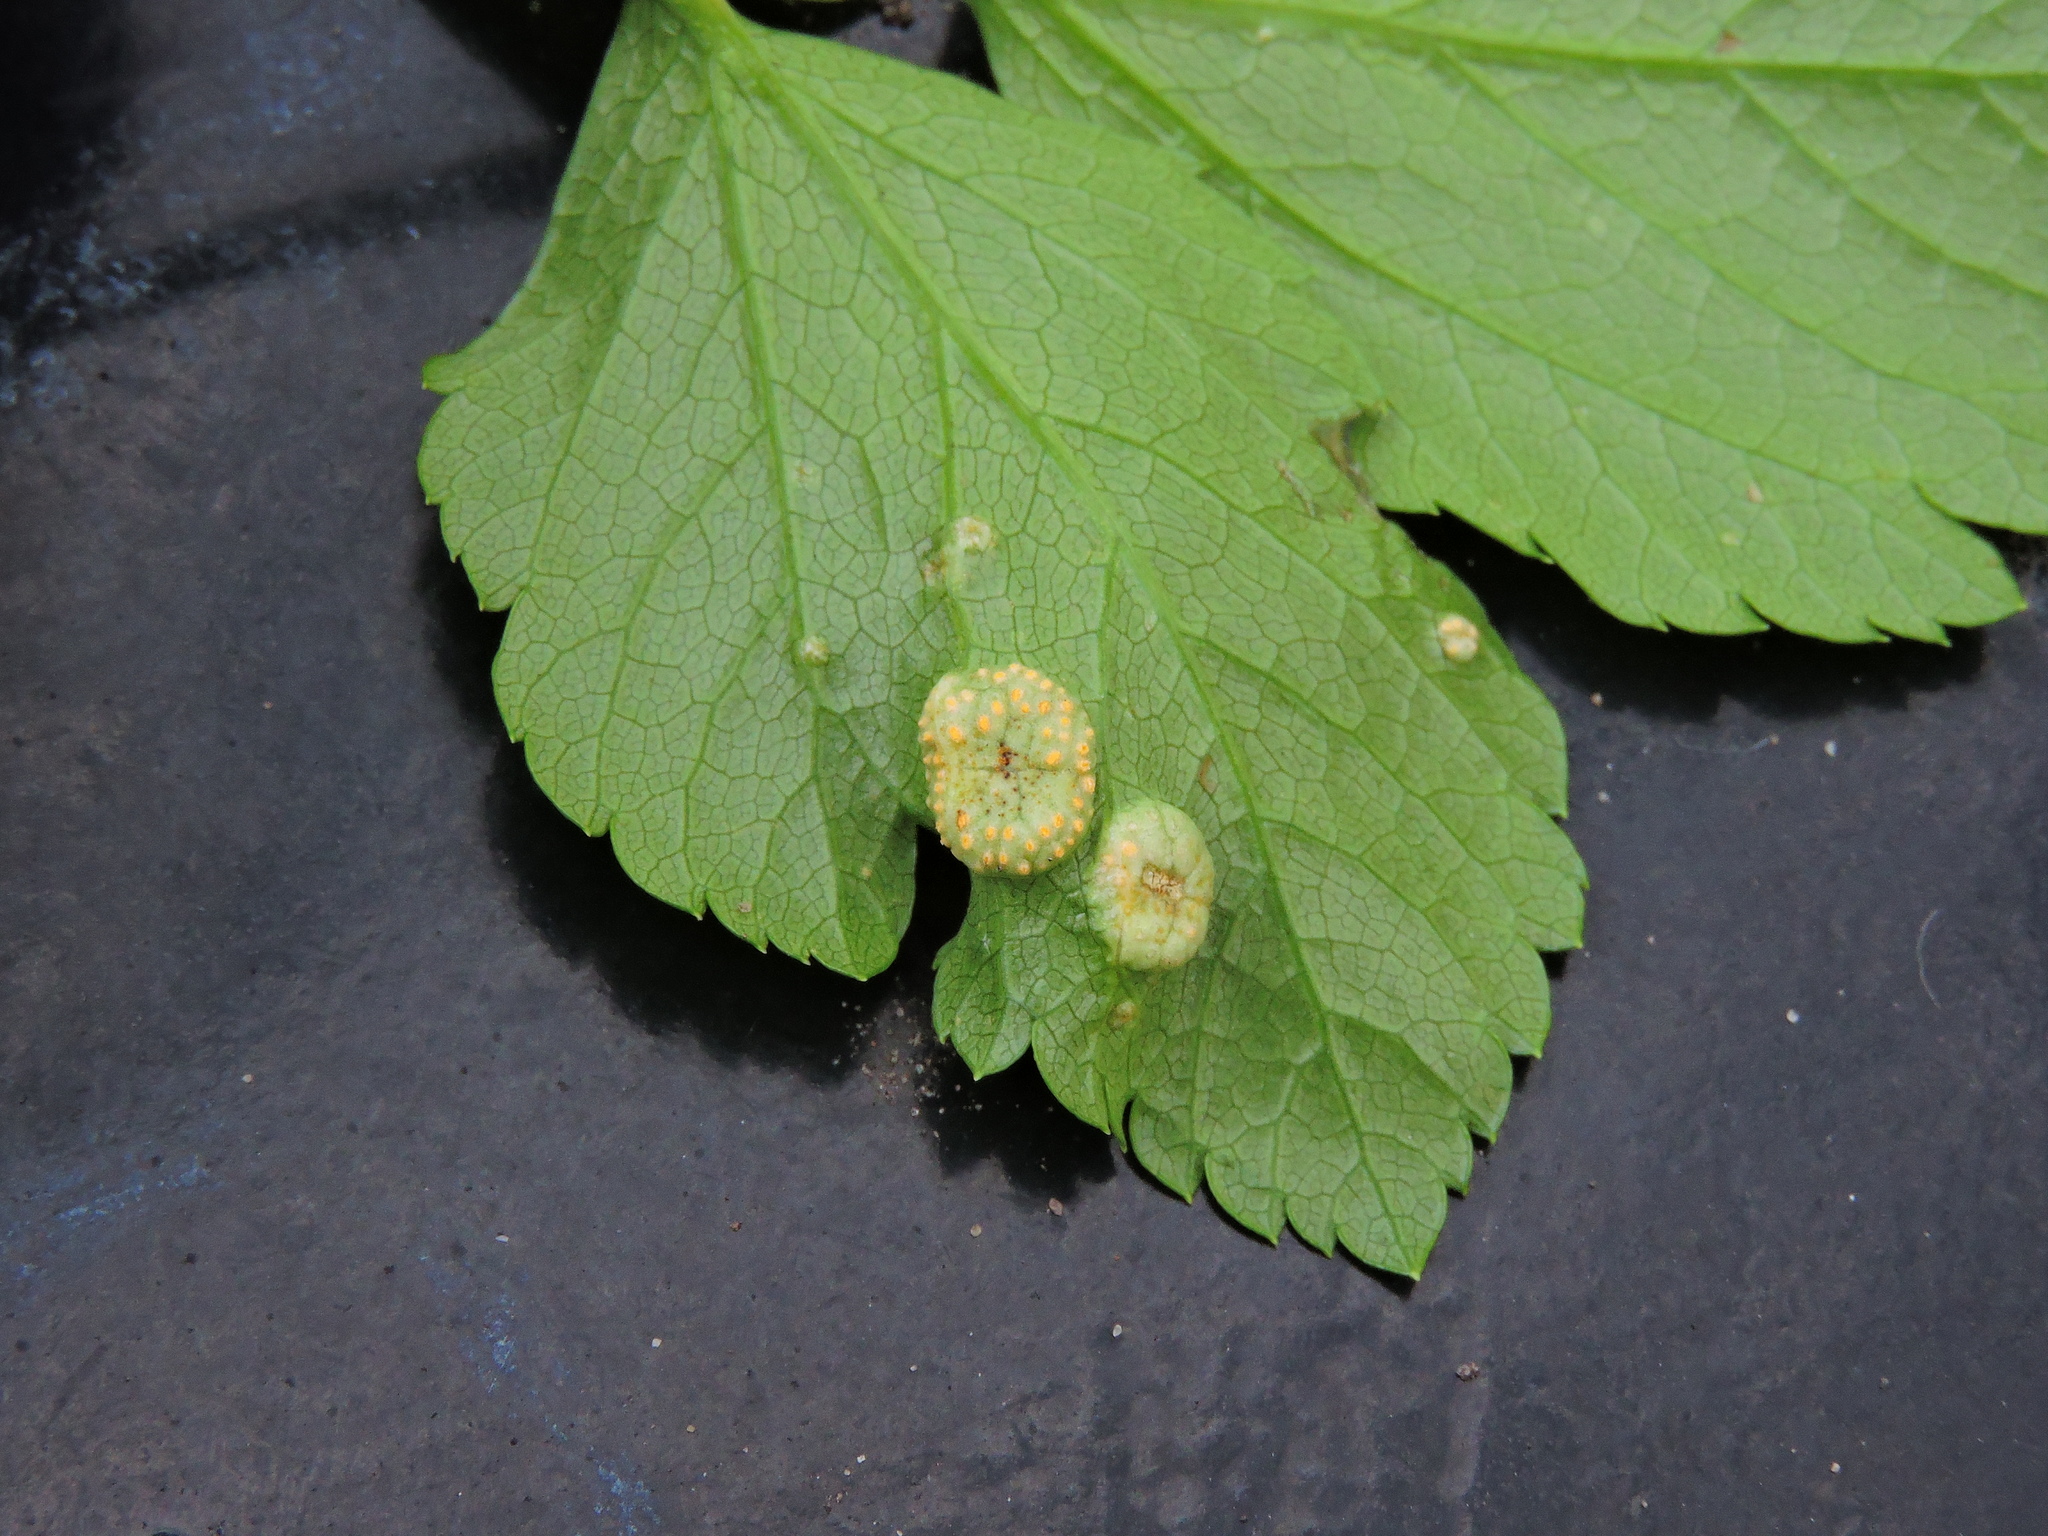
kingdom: Fungi
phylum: Basidiomycota
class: Pucciniomycetes
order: Pucciniales
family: Pucciniaceae
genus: Puccinia
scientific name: Puccinia smyrnii
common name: Alexanders rust
